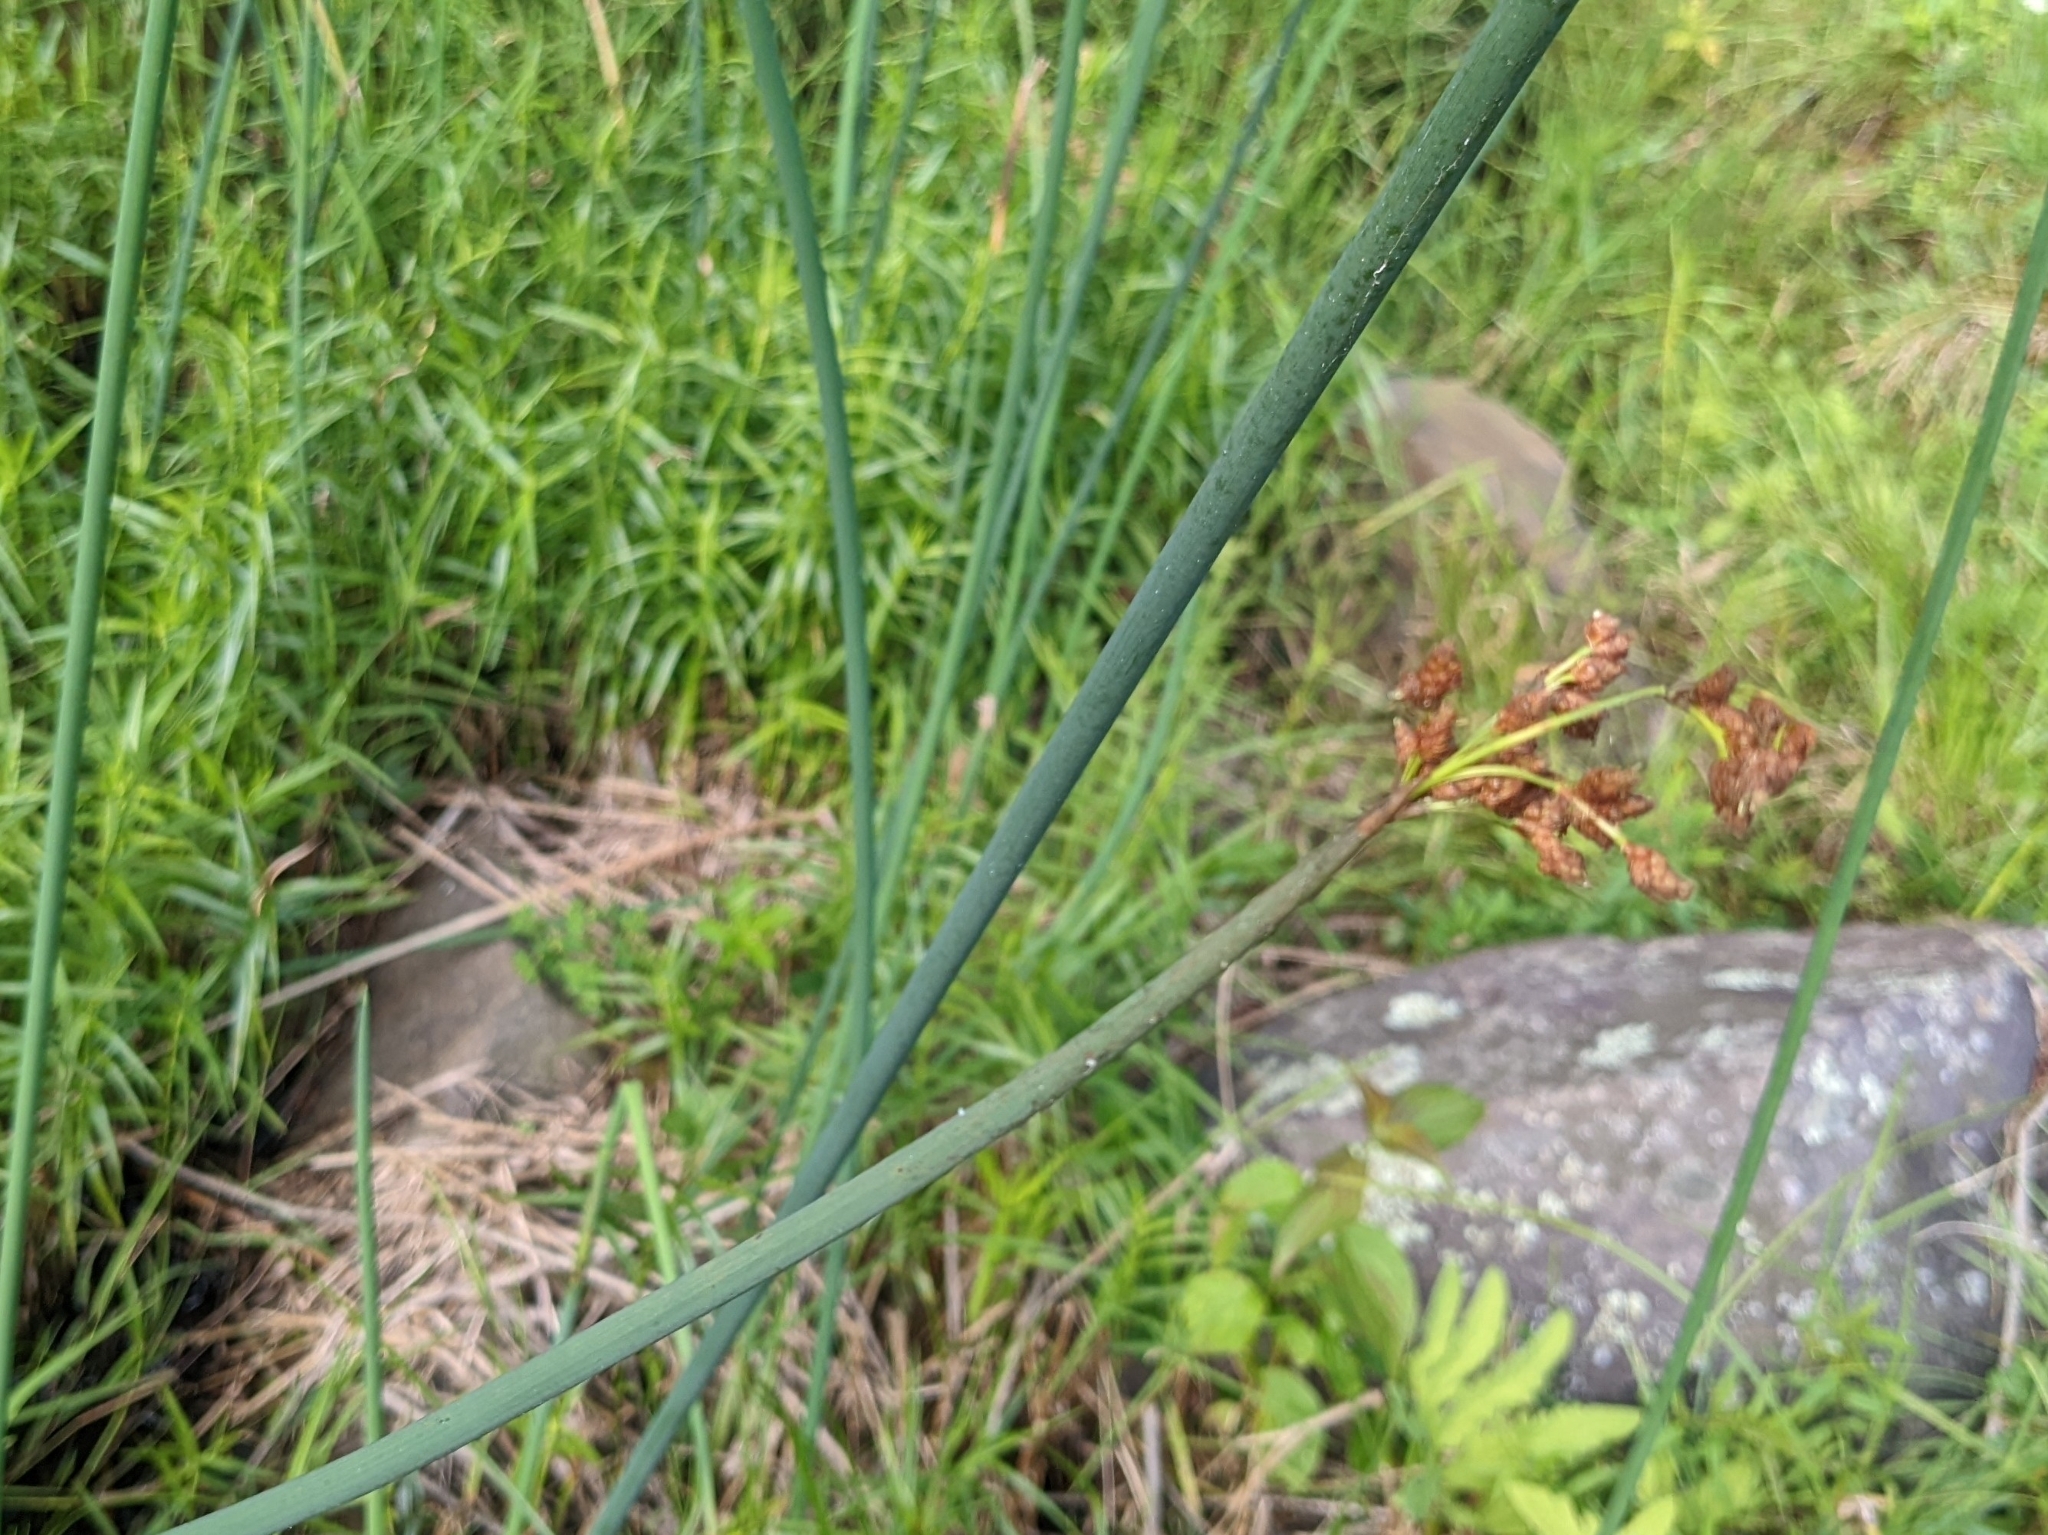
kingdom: Plantae
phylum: Tracheophyta
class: Liliopsida
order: Poales
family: Cyperaceae
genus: Schoenoplectus
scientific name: Schoenoplectus tabernaemontani
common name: Grey club-rush
